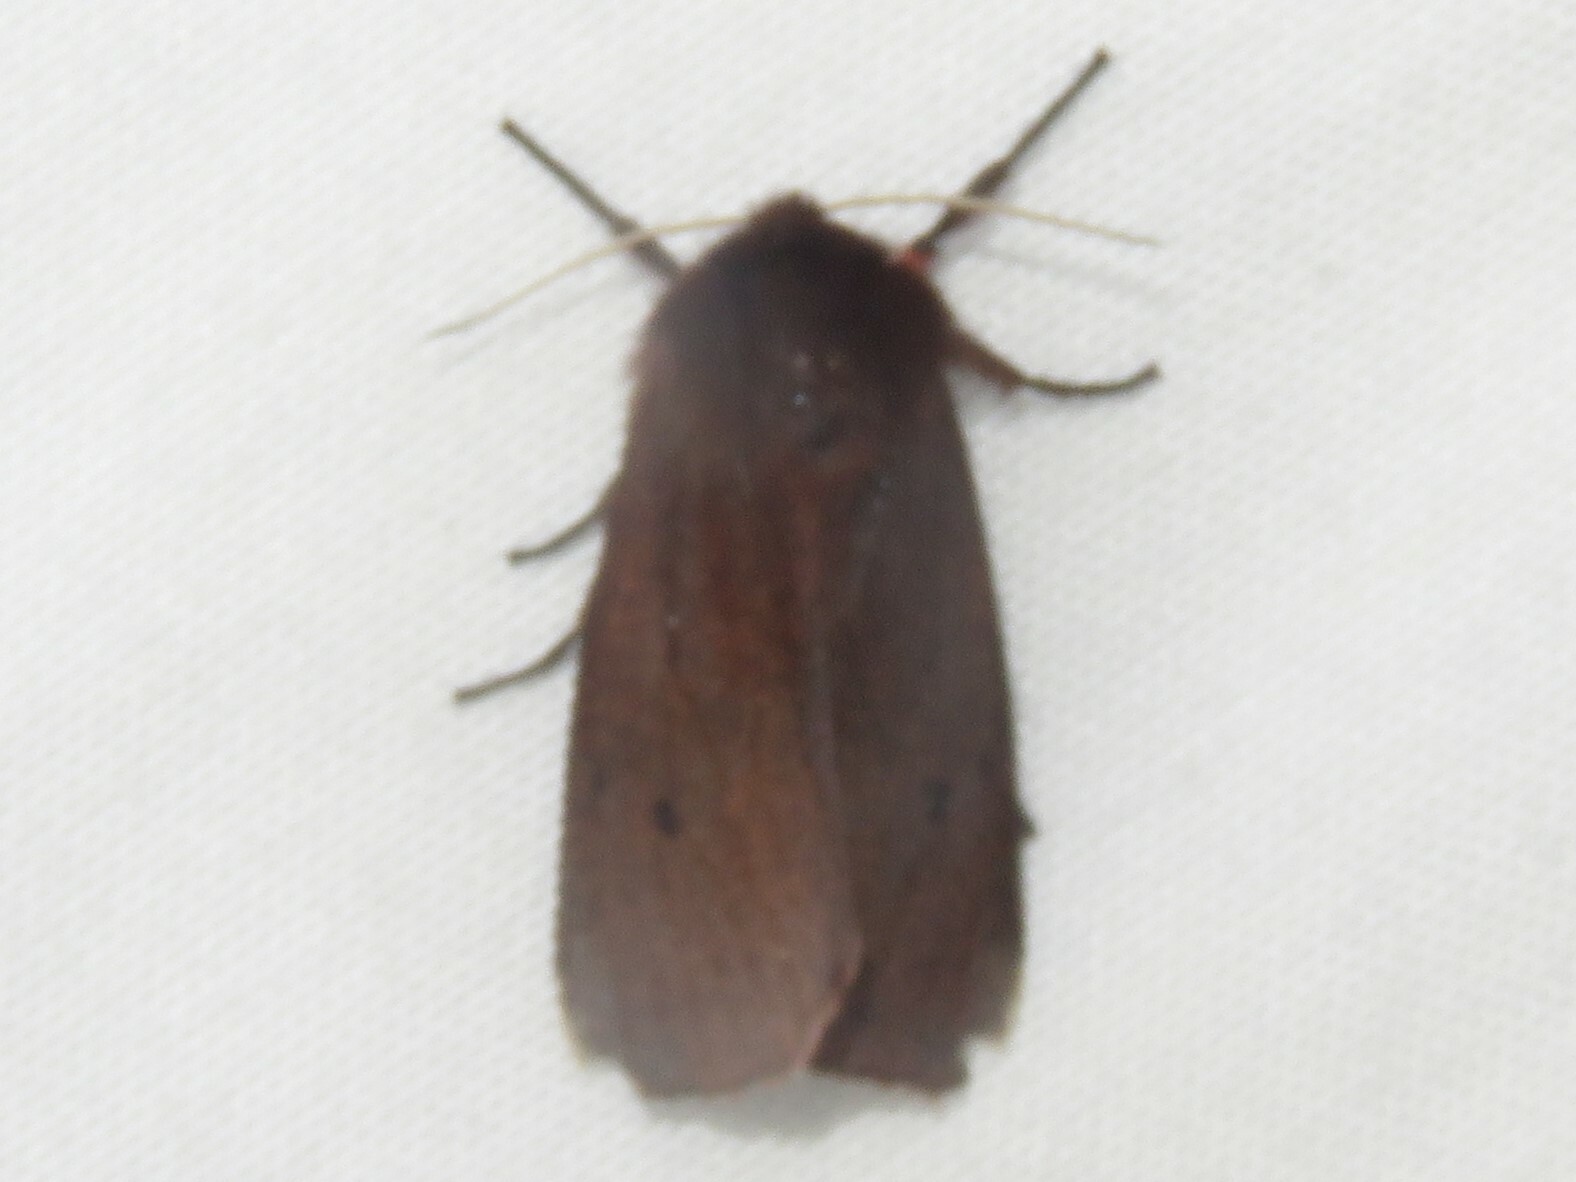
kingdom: Animalia
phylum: Arthropoda
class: Insecta
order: Lepidoptera
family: Erebidae
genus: Phragmatobia
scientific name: Phragmatobia fuliginosa
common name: Ruby tiger
